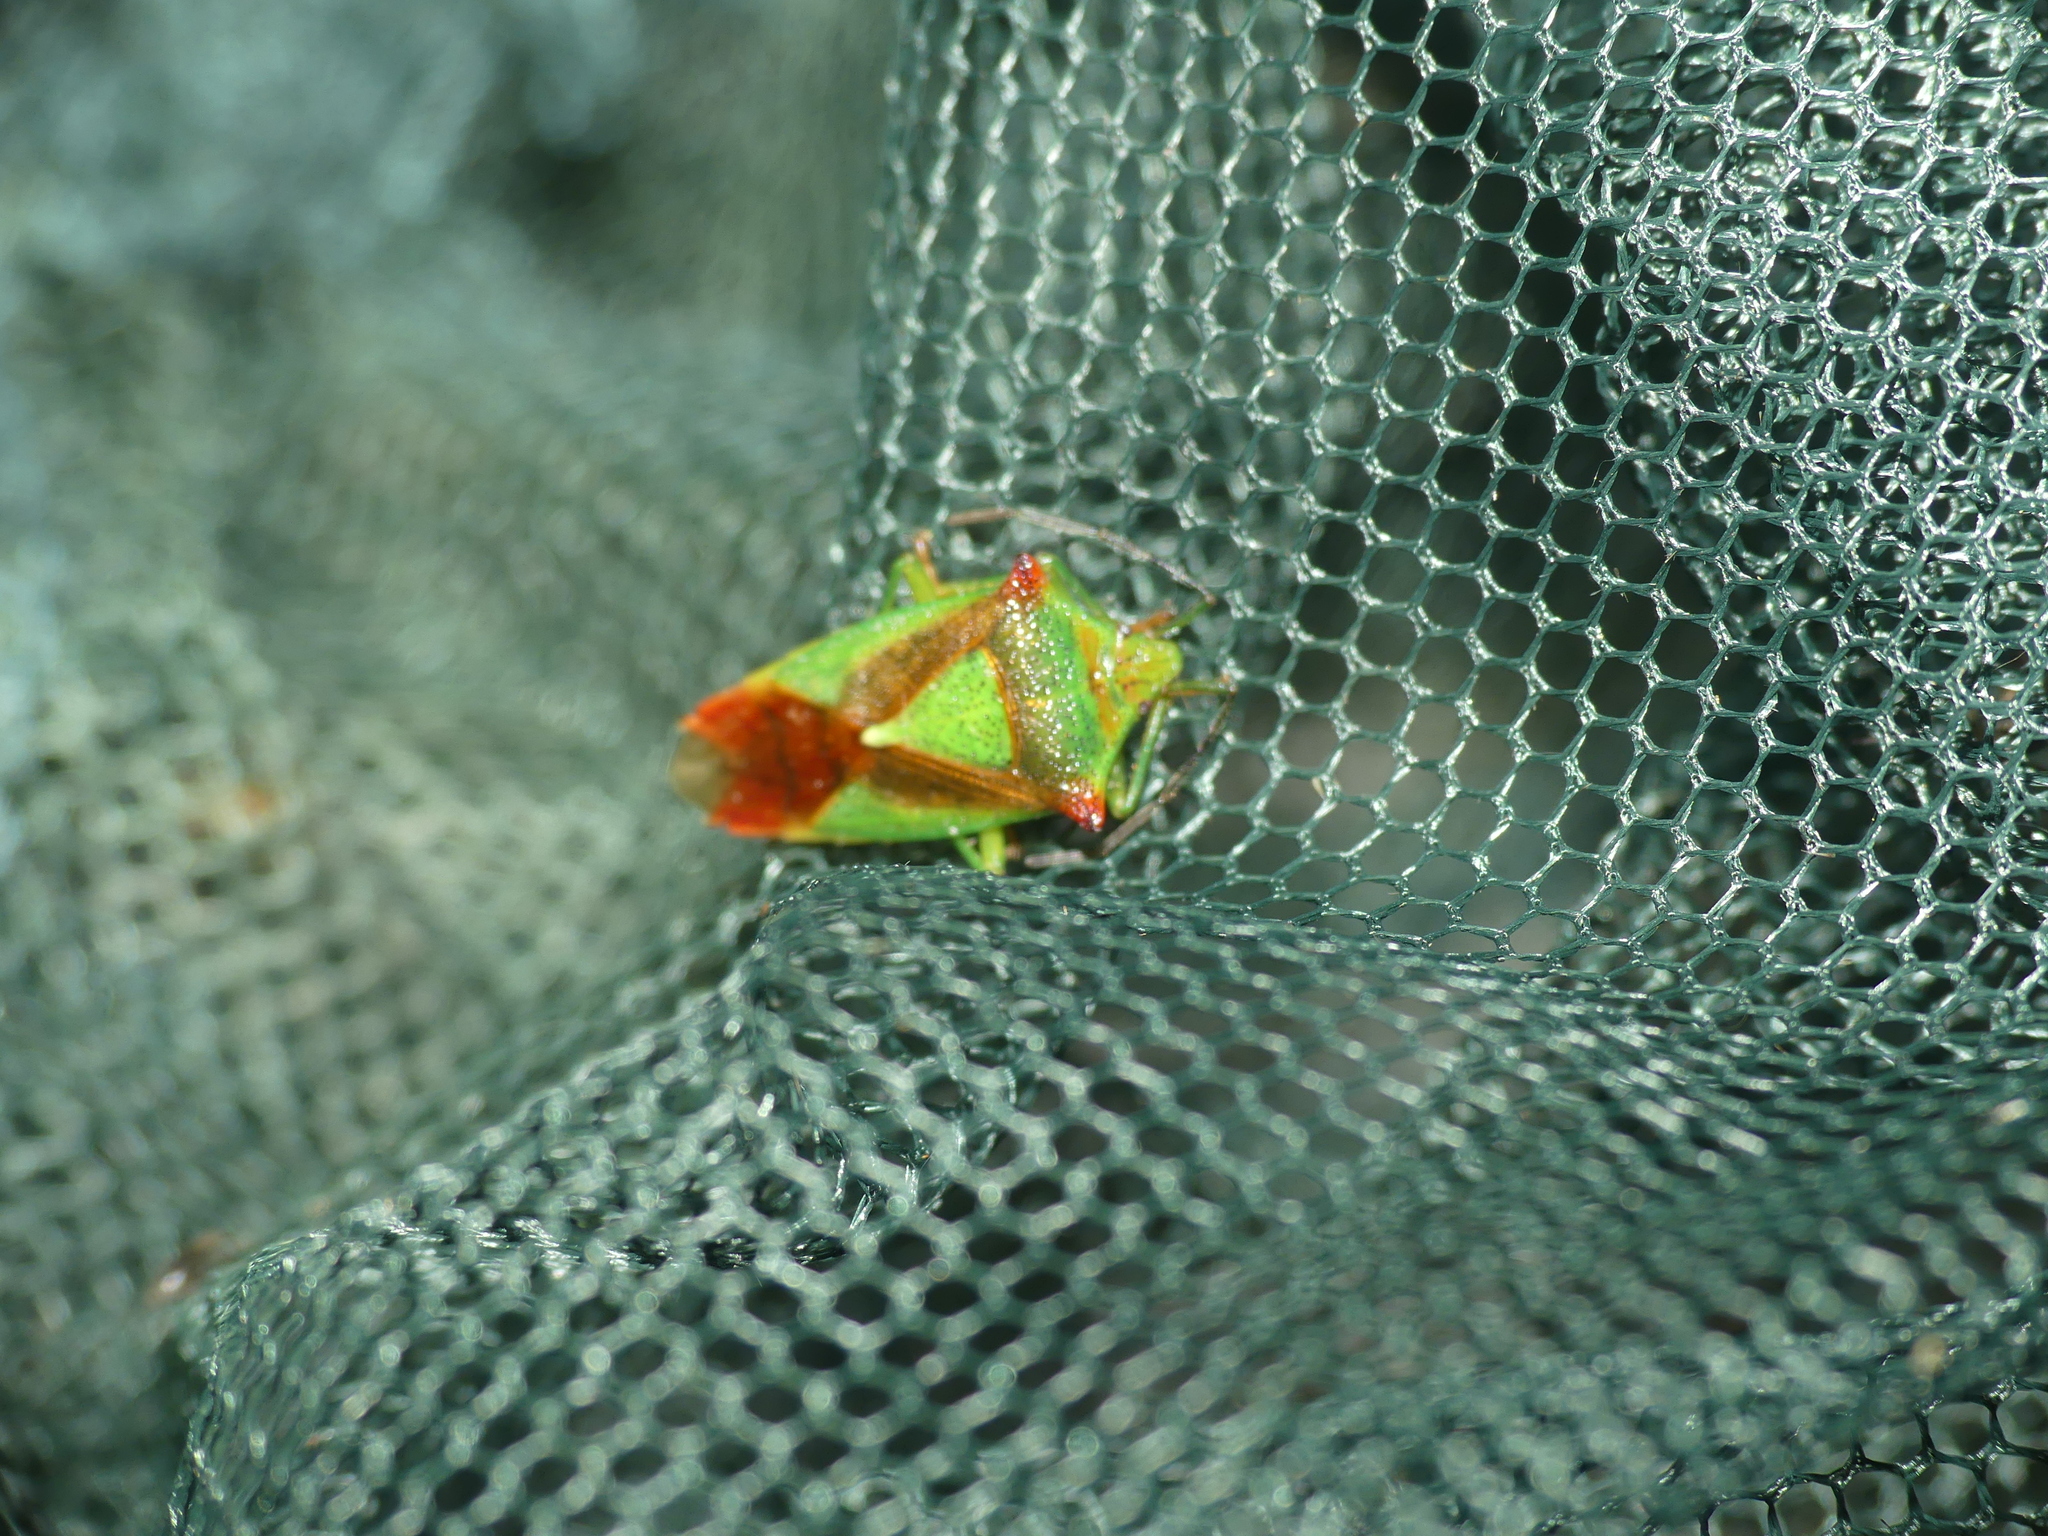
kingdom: Animalia
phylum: Arthropoda
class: Insecta
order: Hemiptera
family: Acanthosomatidae
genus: Acanthosoma
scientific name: Acanthosoma haemorrhoidale
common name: Hawthorn shieldbug
